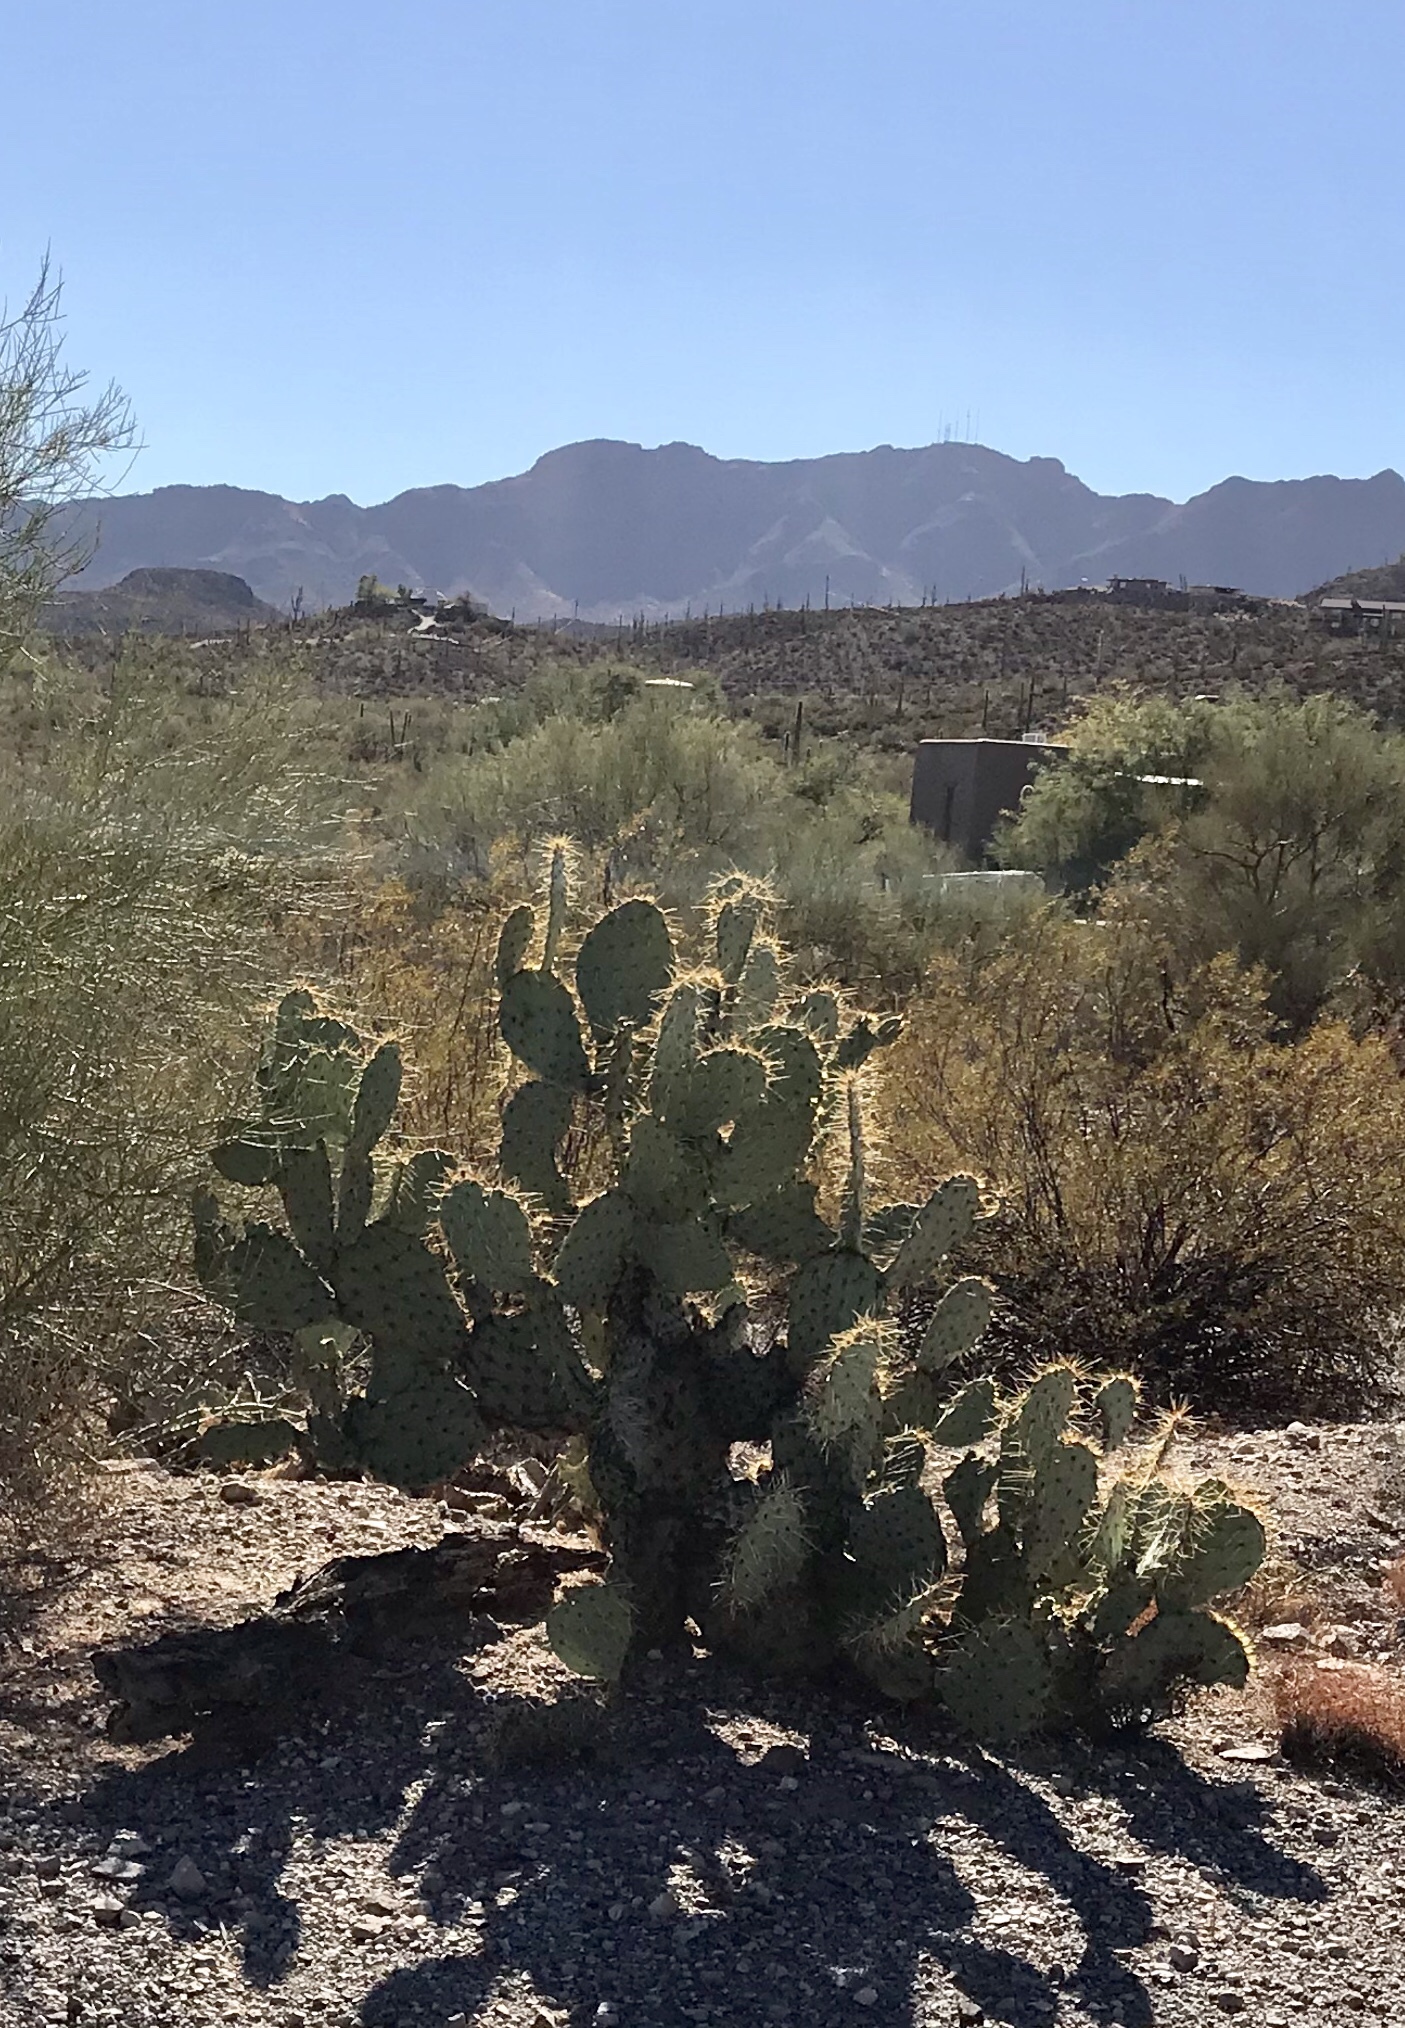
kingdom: Plantae
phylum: Tracheophyta
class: Magnoliopsida
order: Caryophyllales
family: Cactaceae
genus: Opuntia
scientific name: Opuntia engelmannii
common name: Cactus-apple
